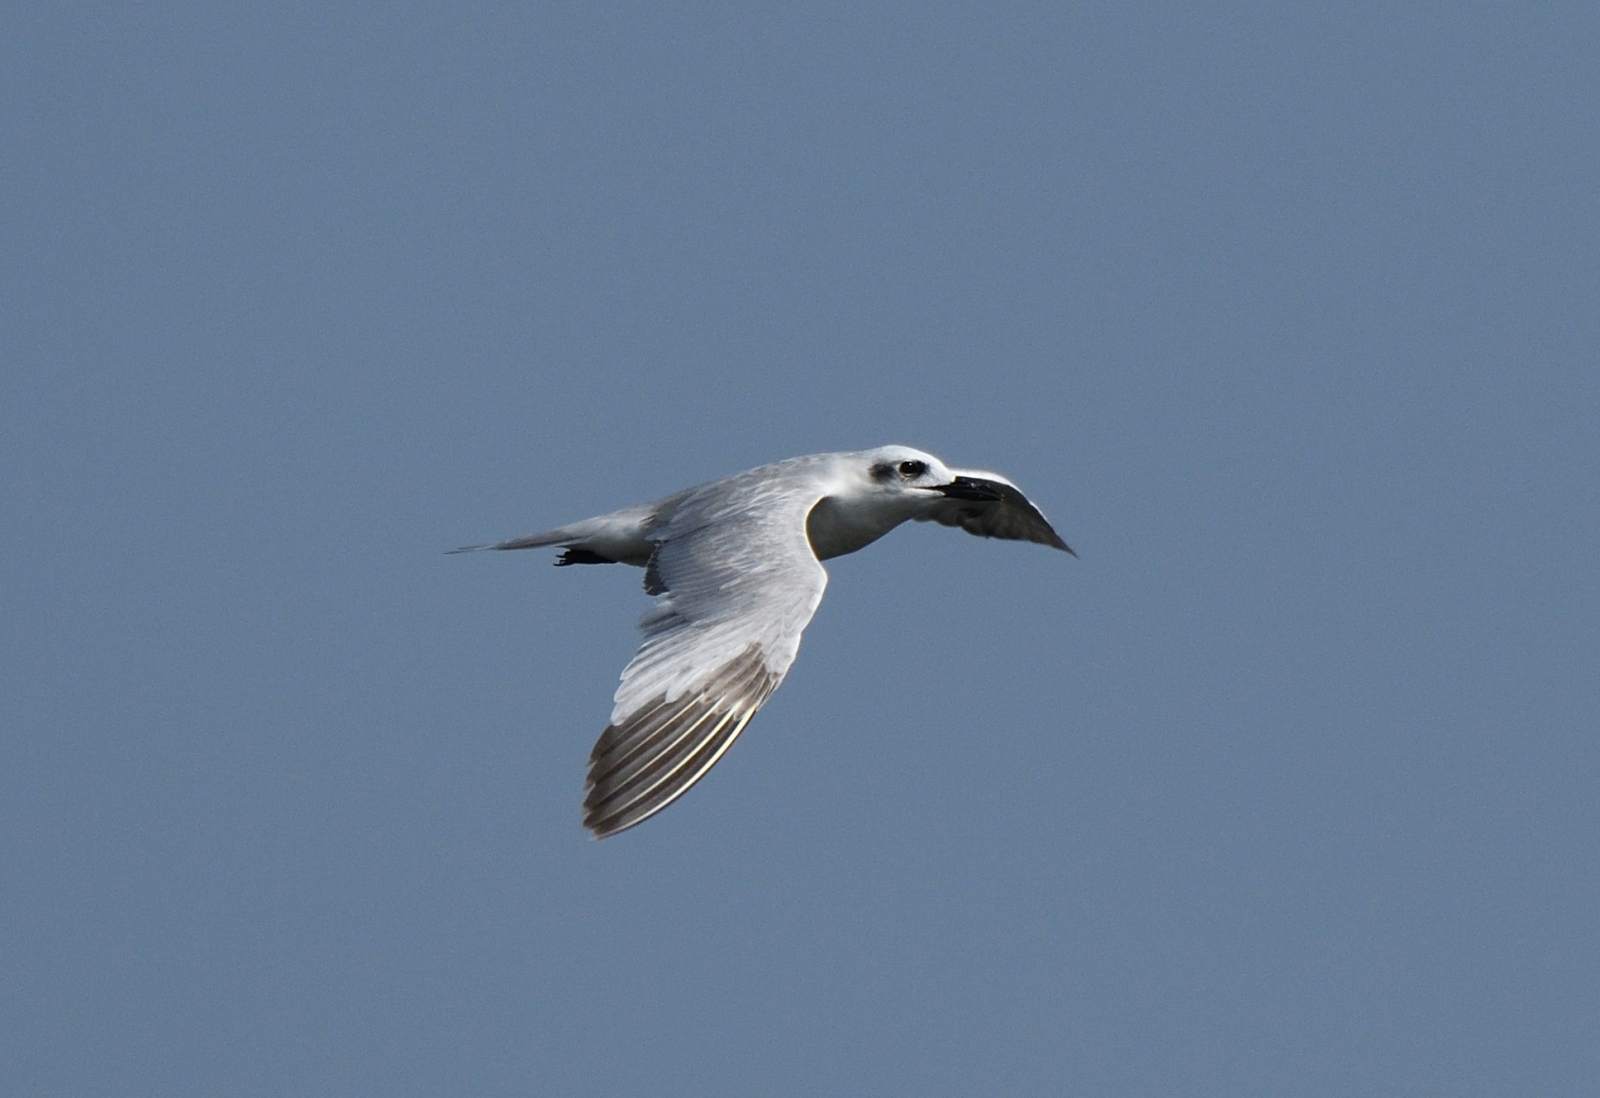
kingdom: Animalia
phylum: Chordata
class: Aves
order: Charadriiformes
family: Laridae
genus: Chlidonias
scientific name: Chlidonias hybrida
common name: Whiskered tern
